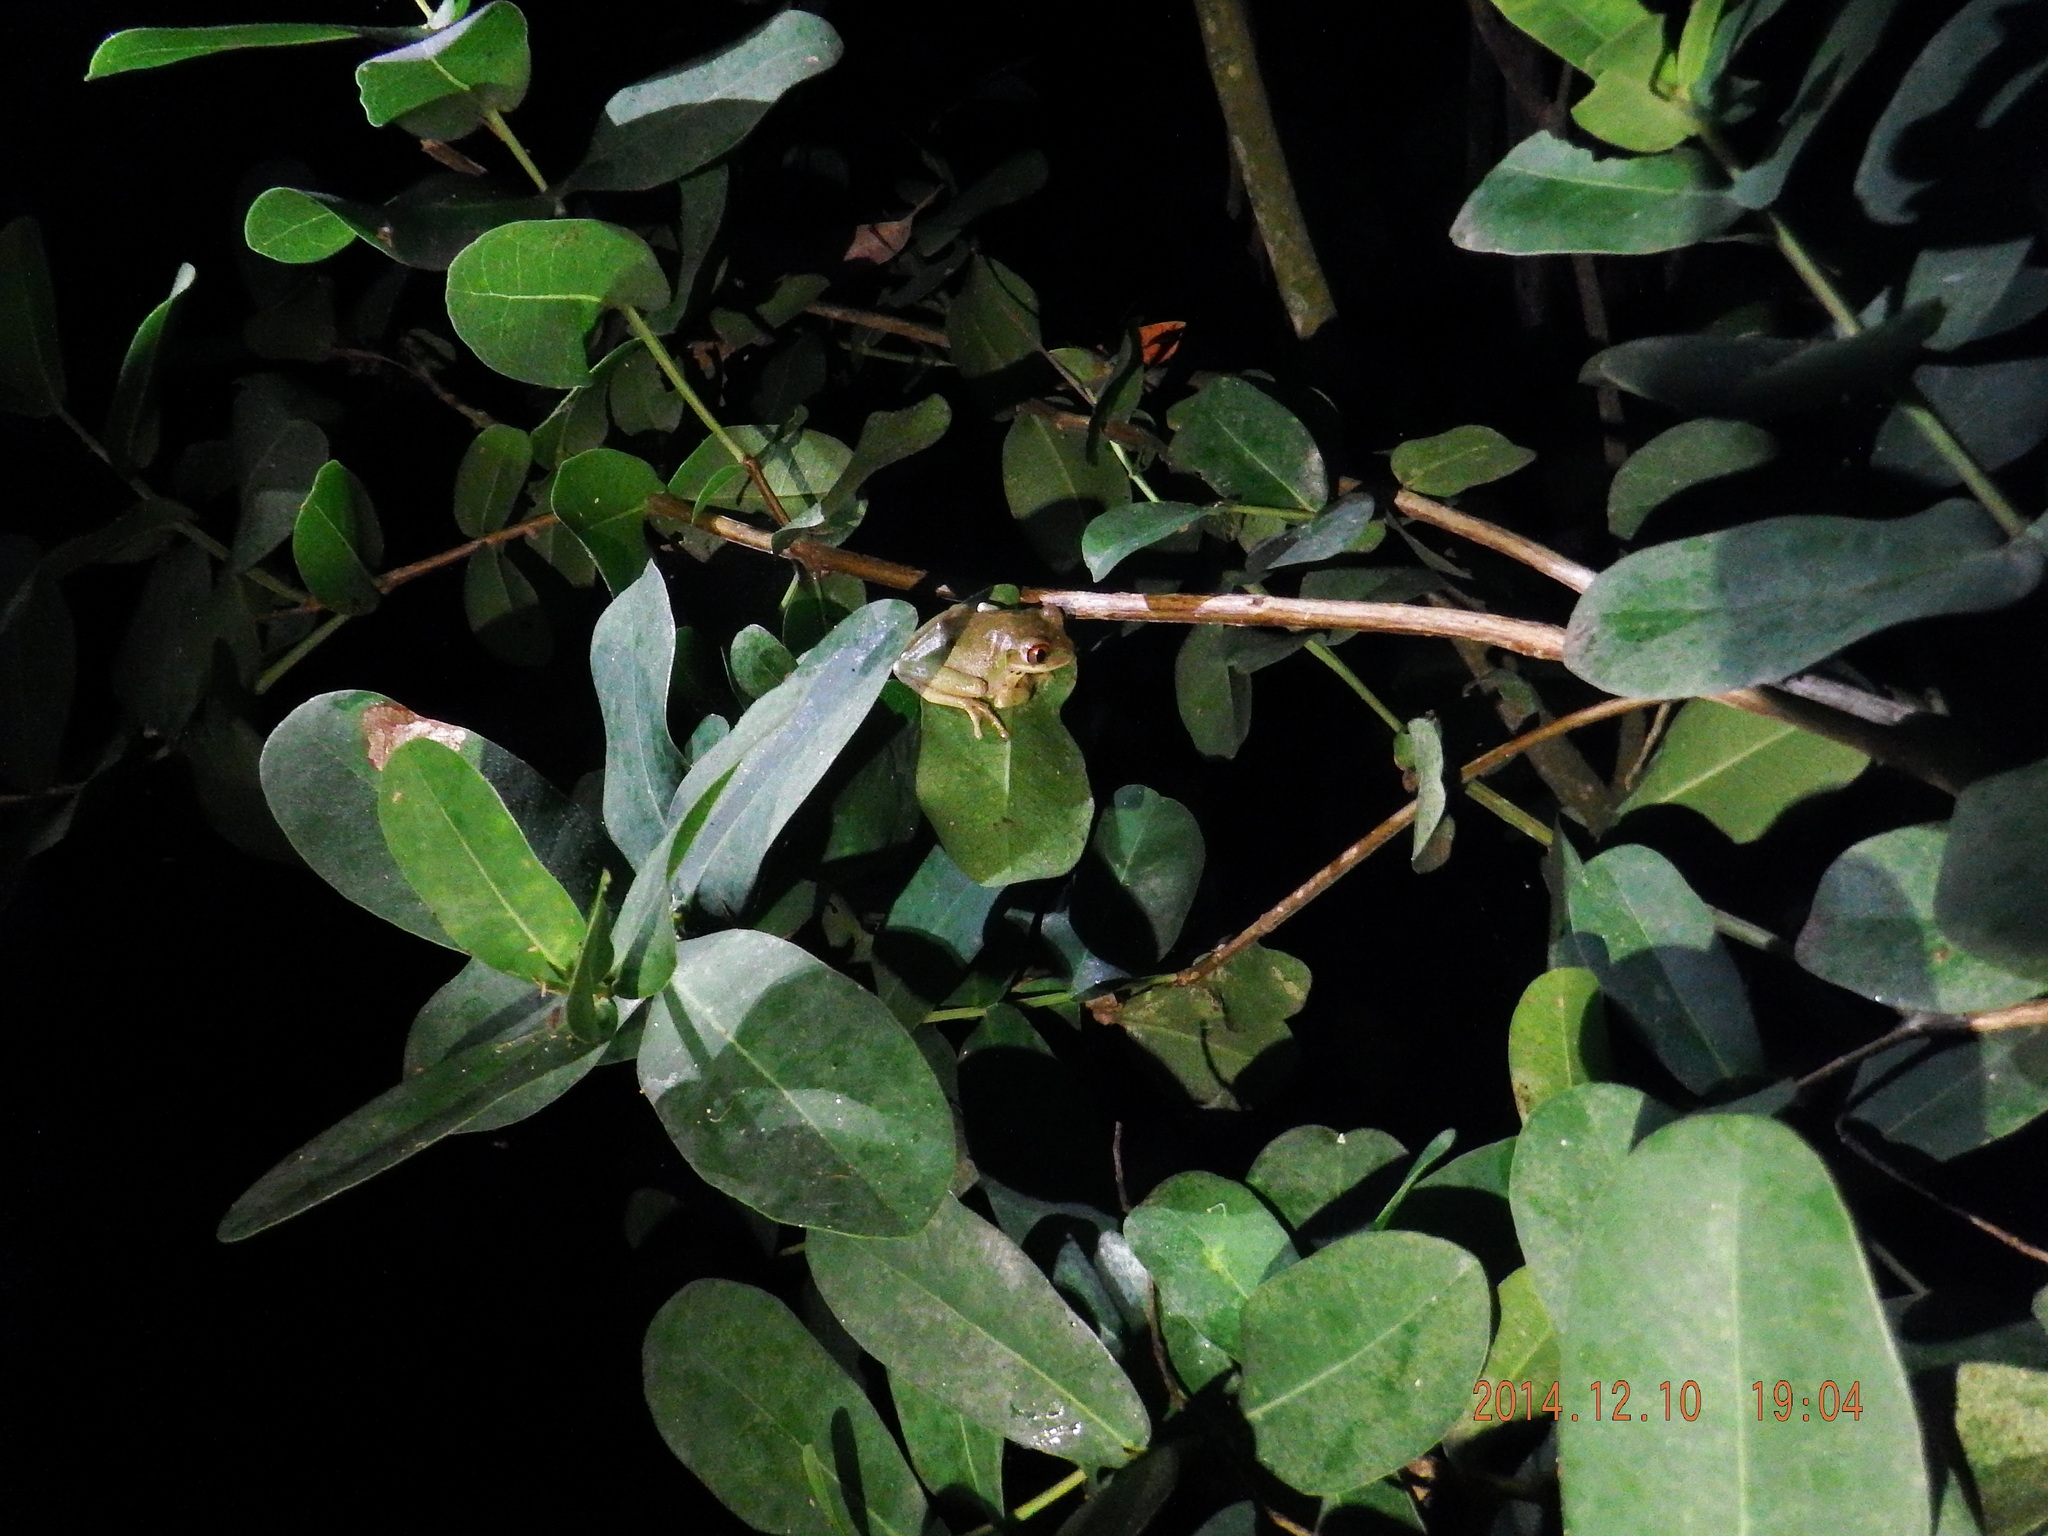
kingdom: Animalia
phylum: Chordata
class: Amphibia
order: Anura
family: Arthroleptidae
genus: Leptopelis
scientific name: Leptopelis natalensis
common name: Natal tree frog
